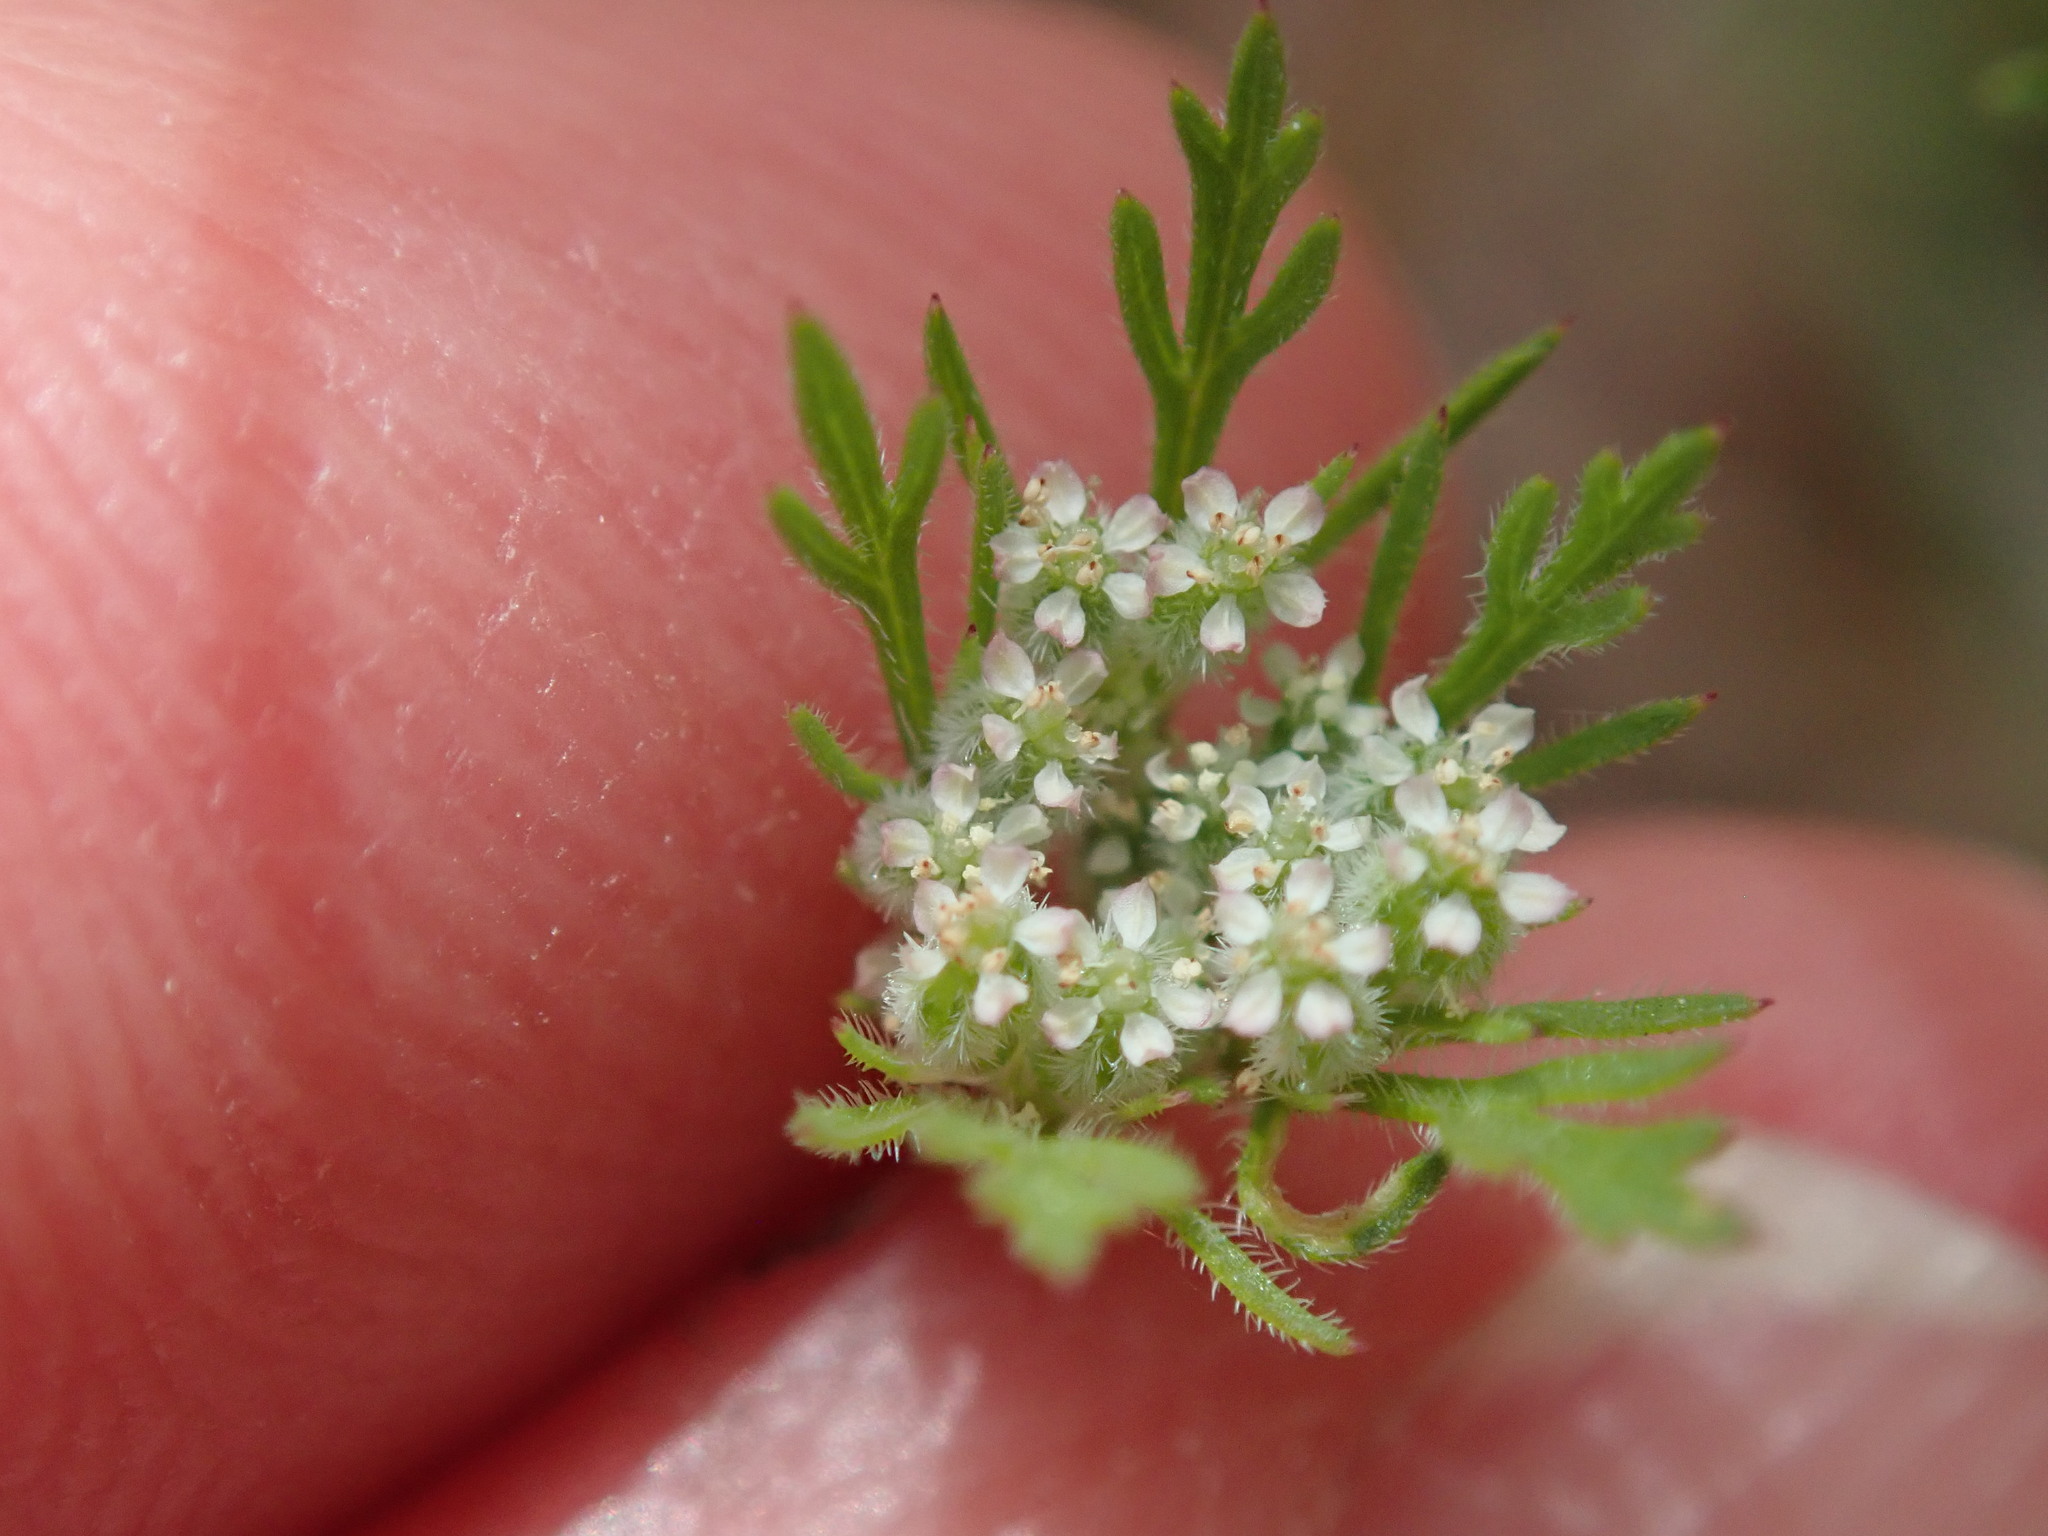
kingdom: Plantae
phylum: Tracheophyta
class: Magnoliopsida
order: Apiales
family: Apiaceae
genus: Daucus
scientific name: Daucus pusillus
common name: Southwest wild carrot
